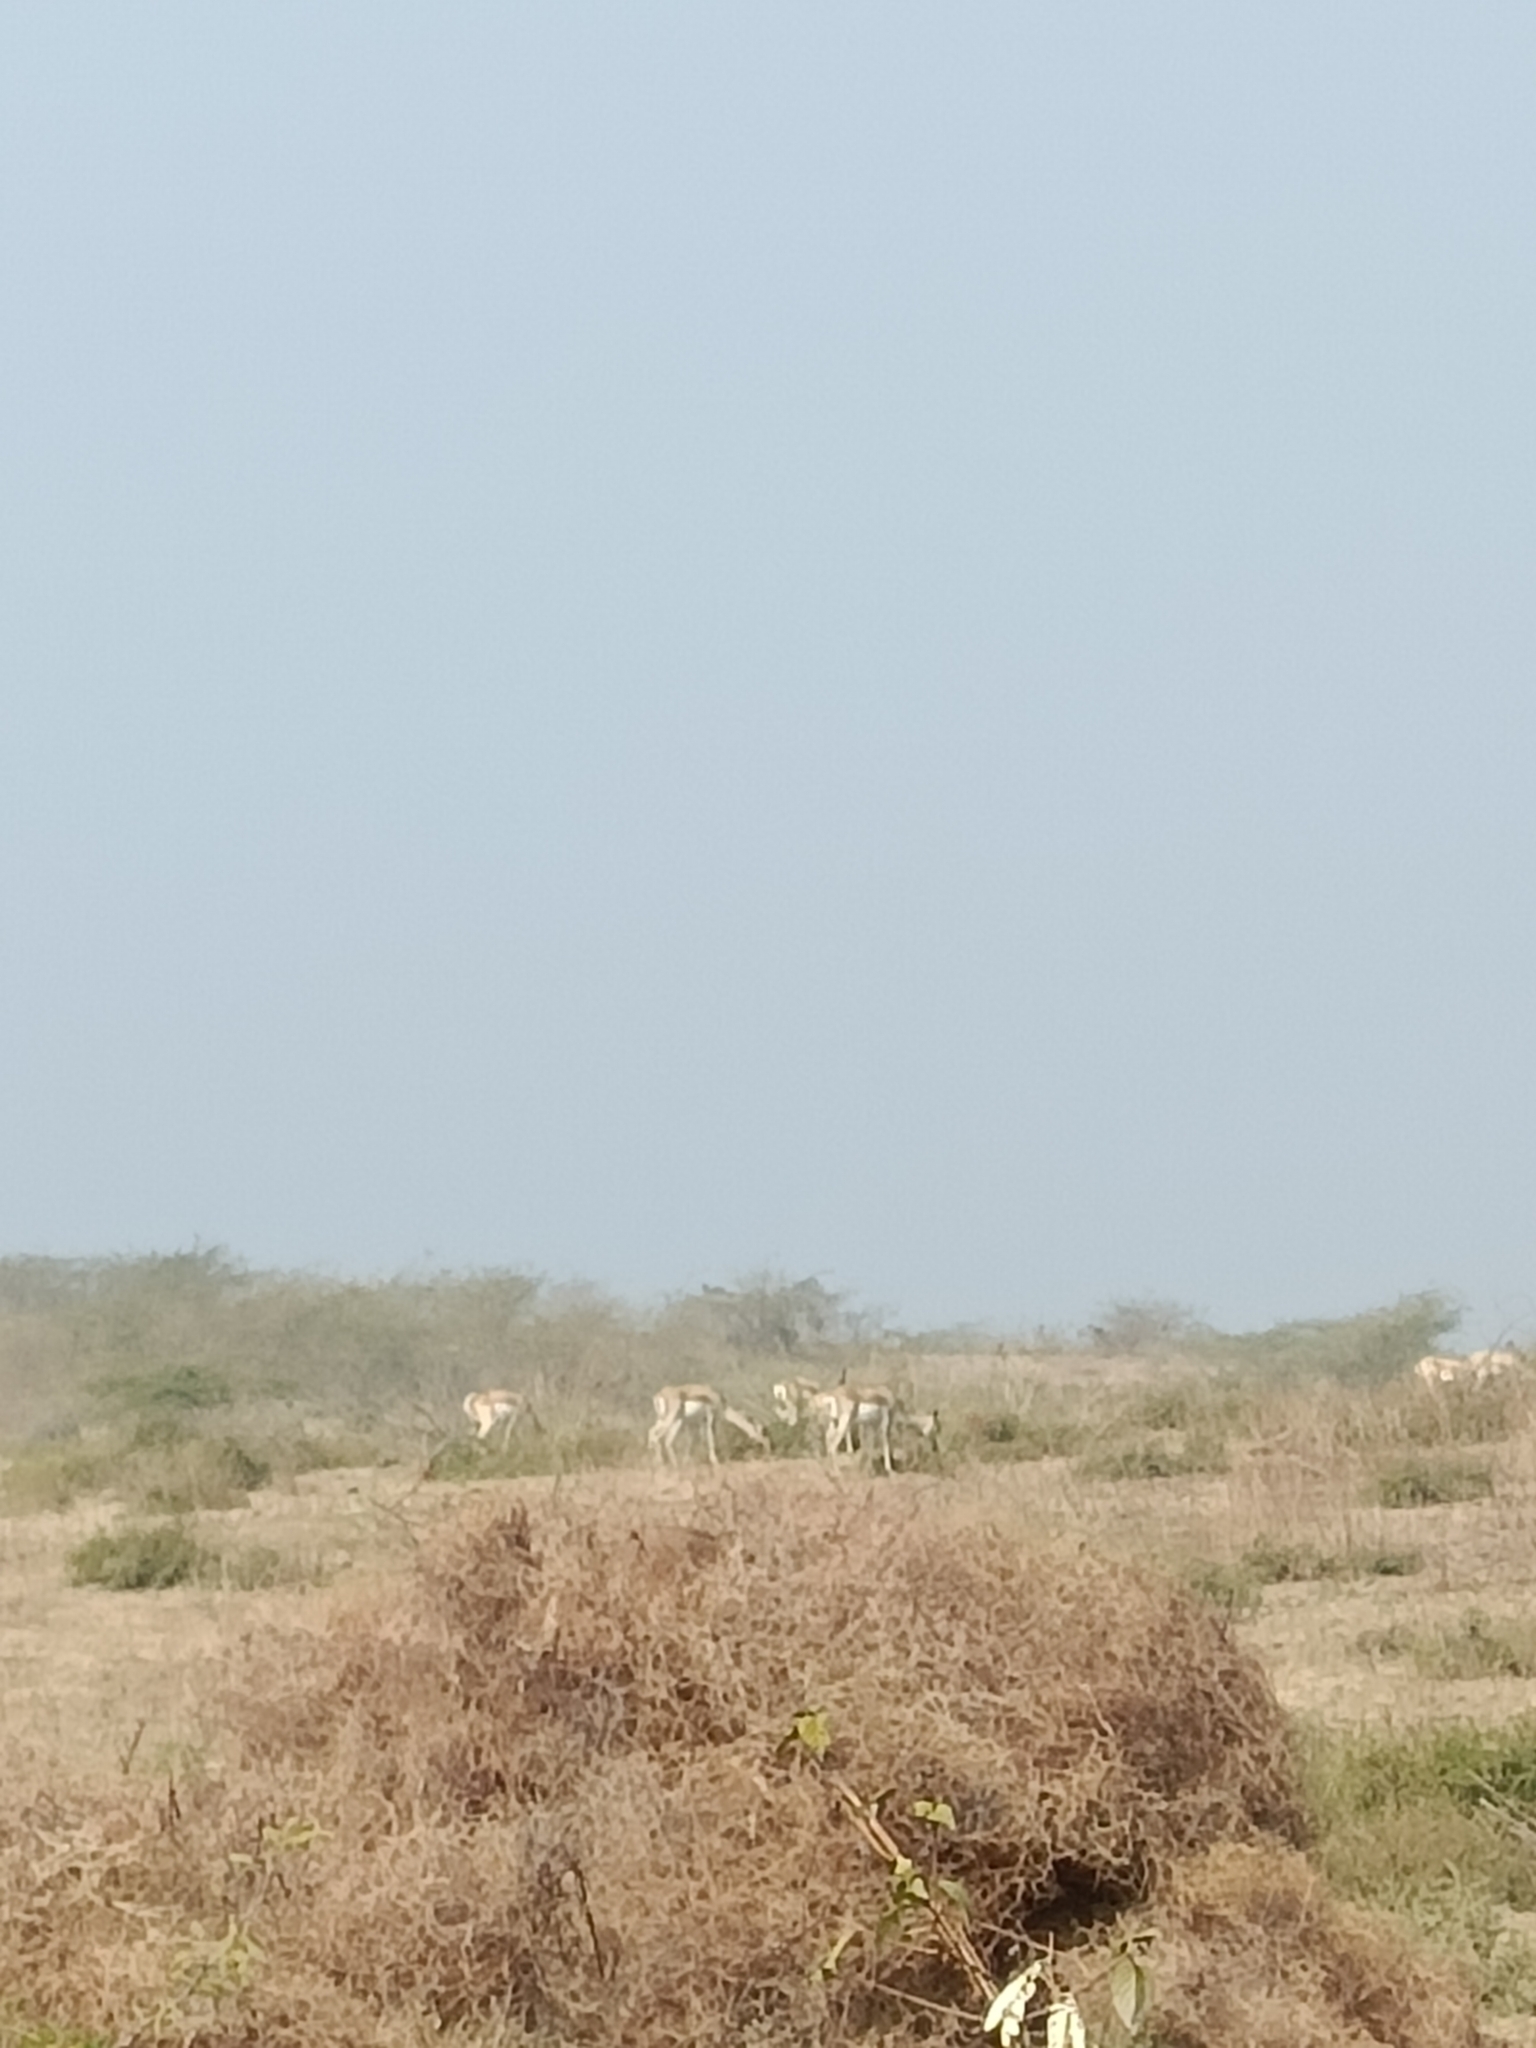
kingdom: Animalia
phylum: Chordata
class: Mammalia
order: Artiodactyla
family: Bovidae
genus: Antilope
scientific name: Antilope cervicapra
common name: Blackbuck
